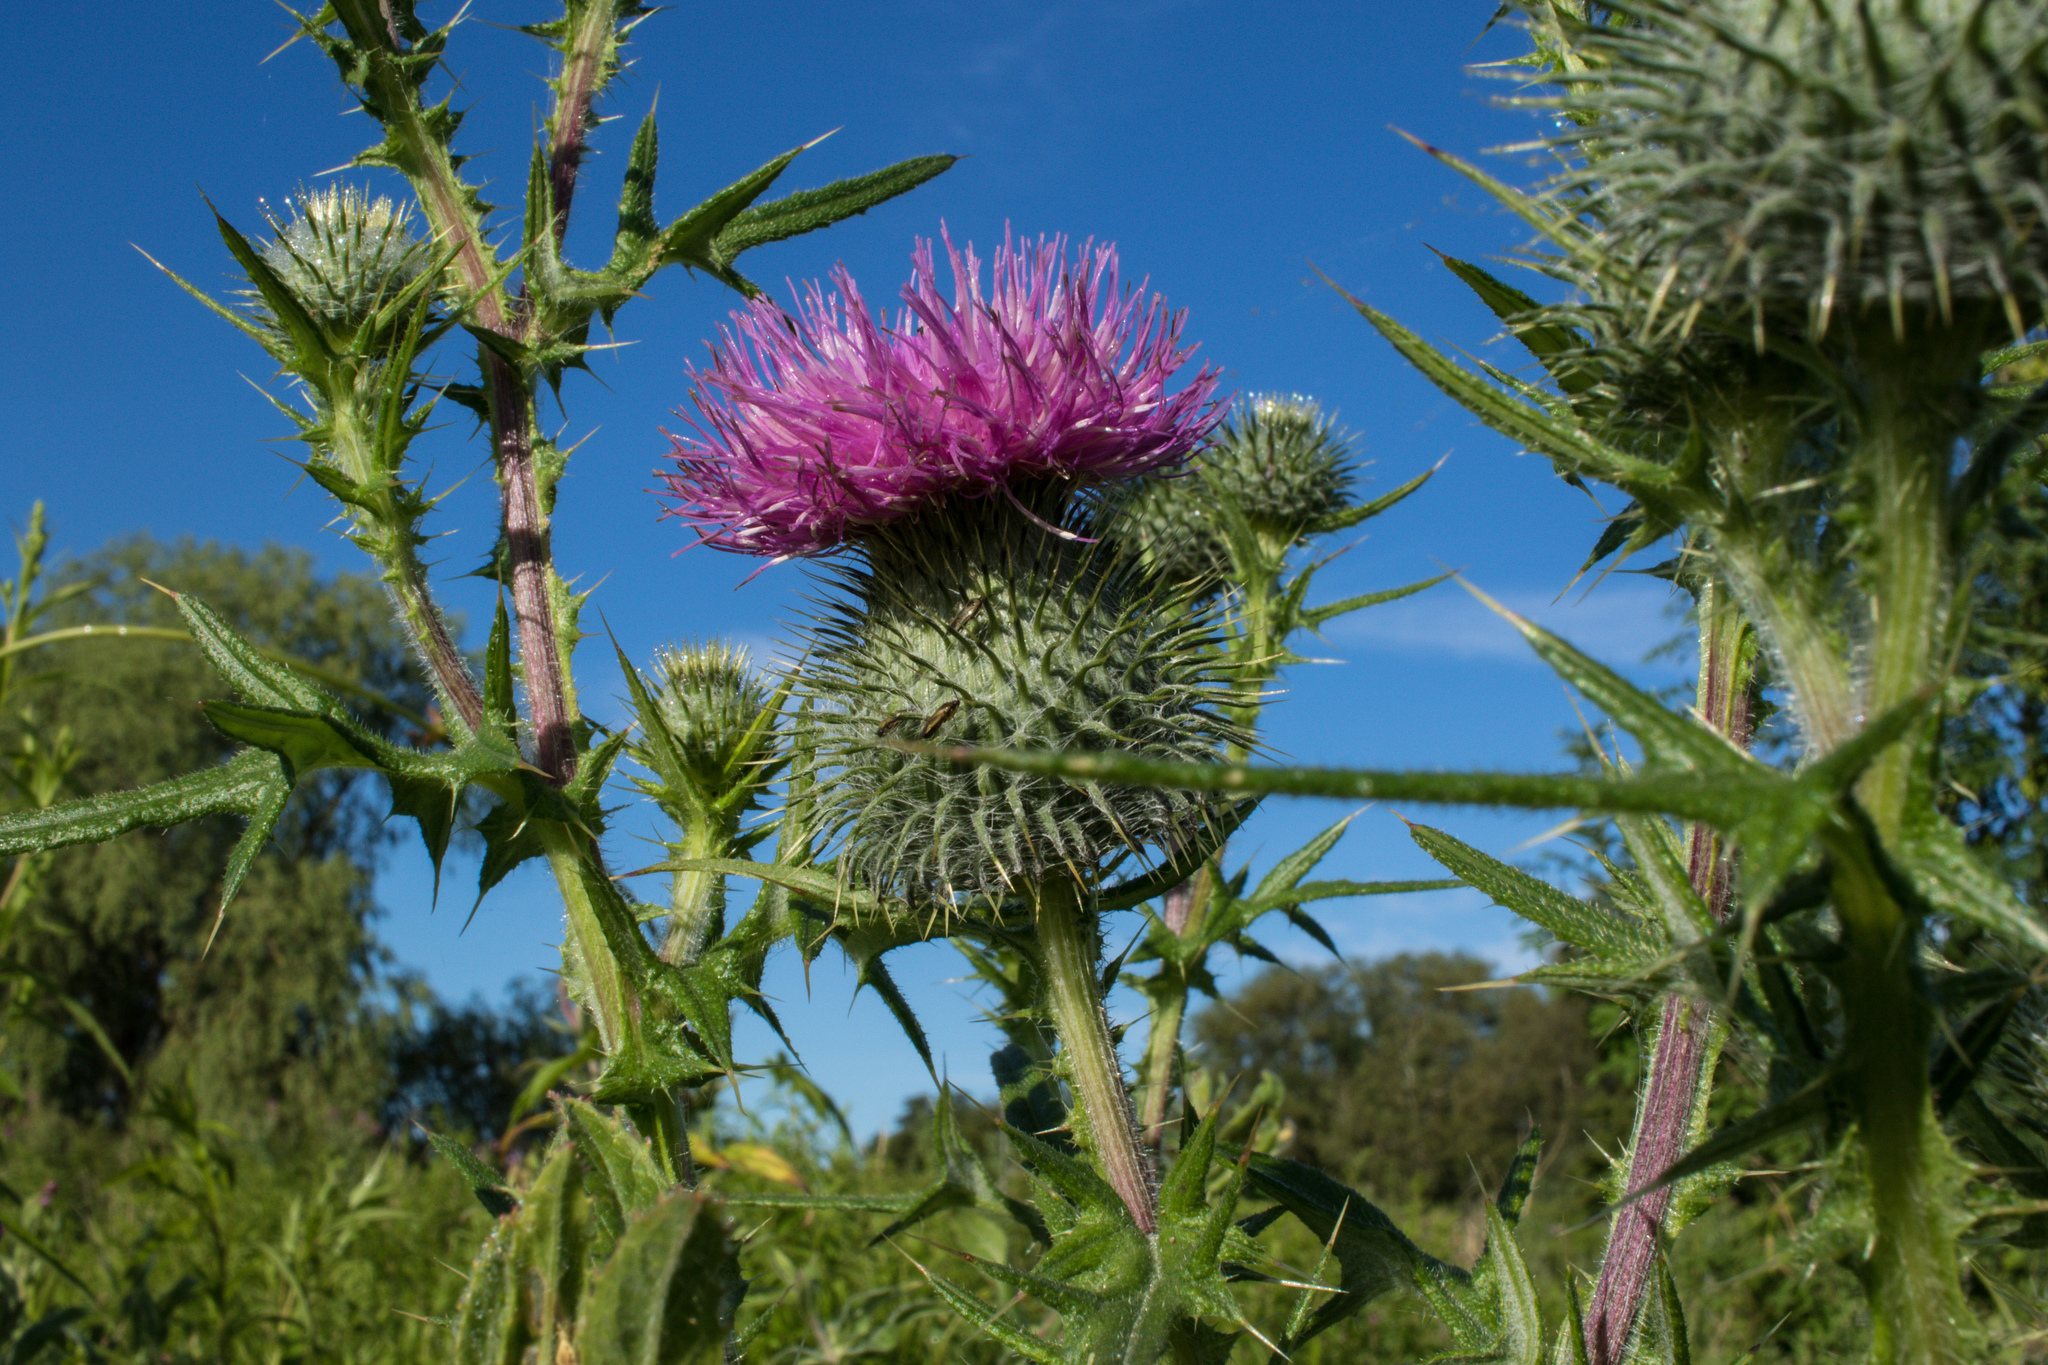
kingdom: Plantae
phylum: Tracheophyta
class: Magnoliopsida
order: Asterales
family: Asteraceae
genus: Cirsium
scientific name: Cirsium vulgare
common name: Bull thistle
